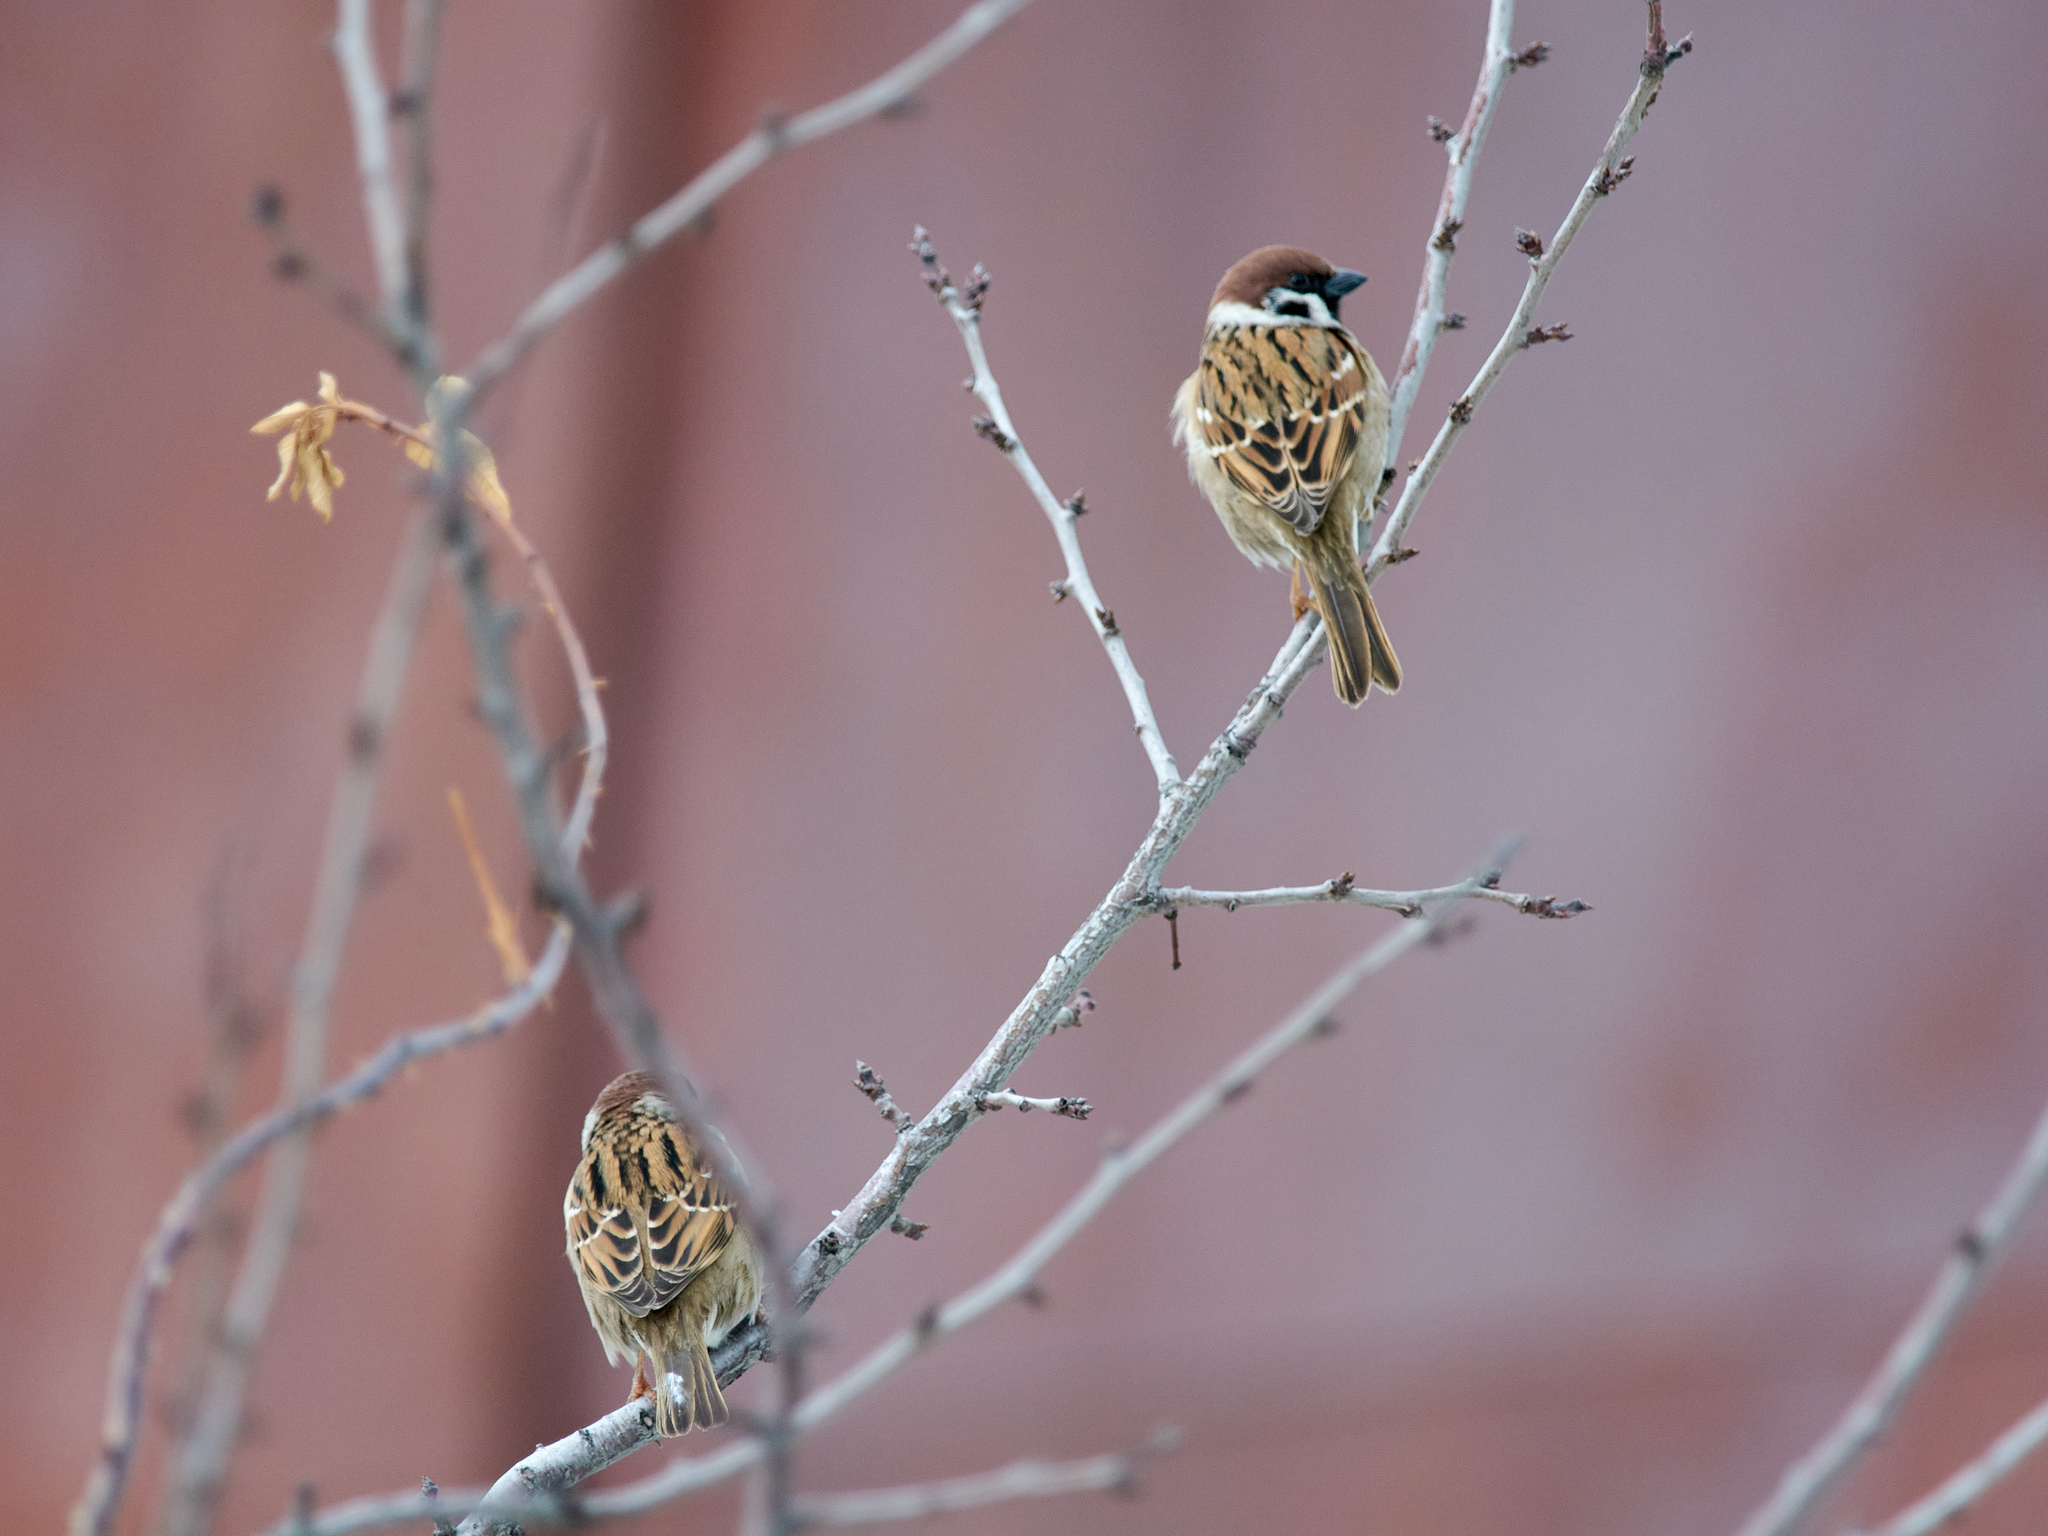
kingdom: Animalia
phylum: Chordata
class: Aves
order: Passeriformes
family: Passeridae
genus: Passer
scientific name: Passer montanus
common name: Eurasian tree sparrow
